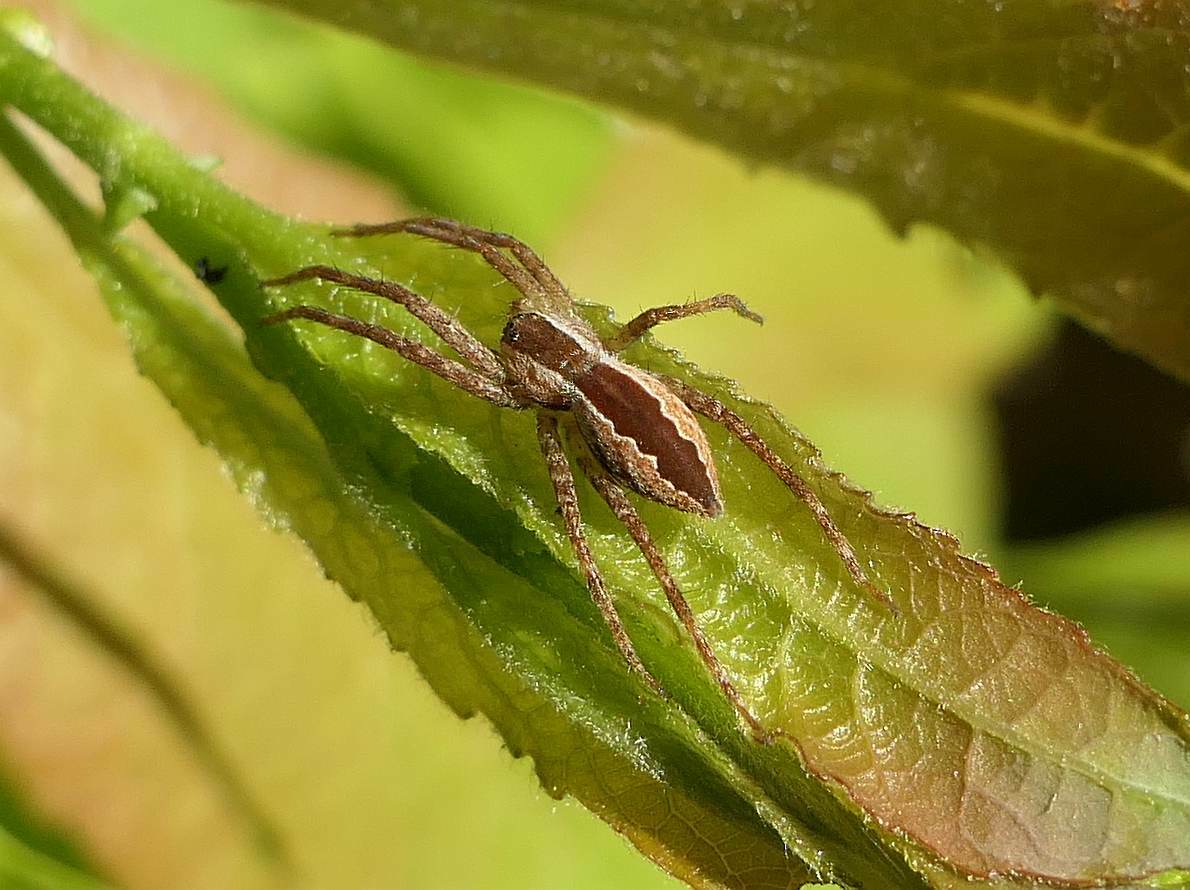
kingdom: Animalia
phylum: Arthropoda
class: Arachnida
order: Araneae
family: Pisauridae
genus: Pisaurina
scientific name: Pisaurina mira
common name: American nursery web spider
